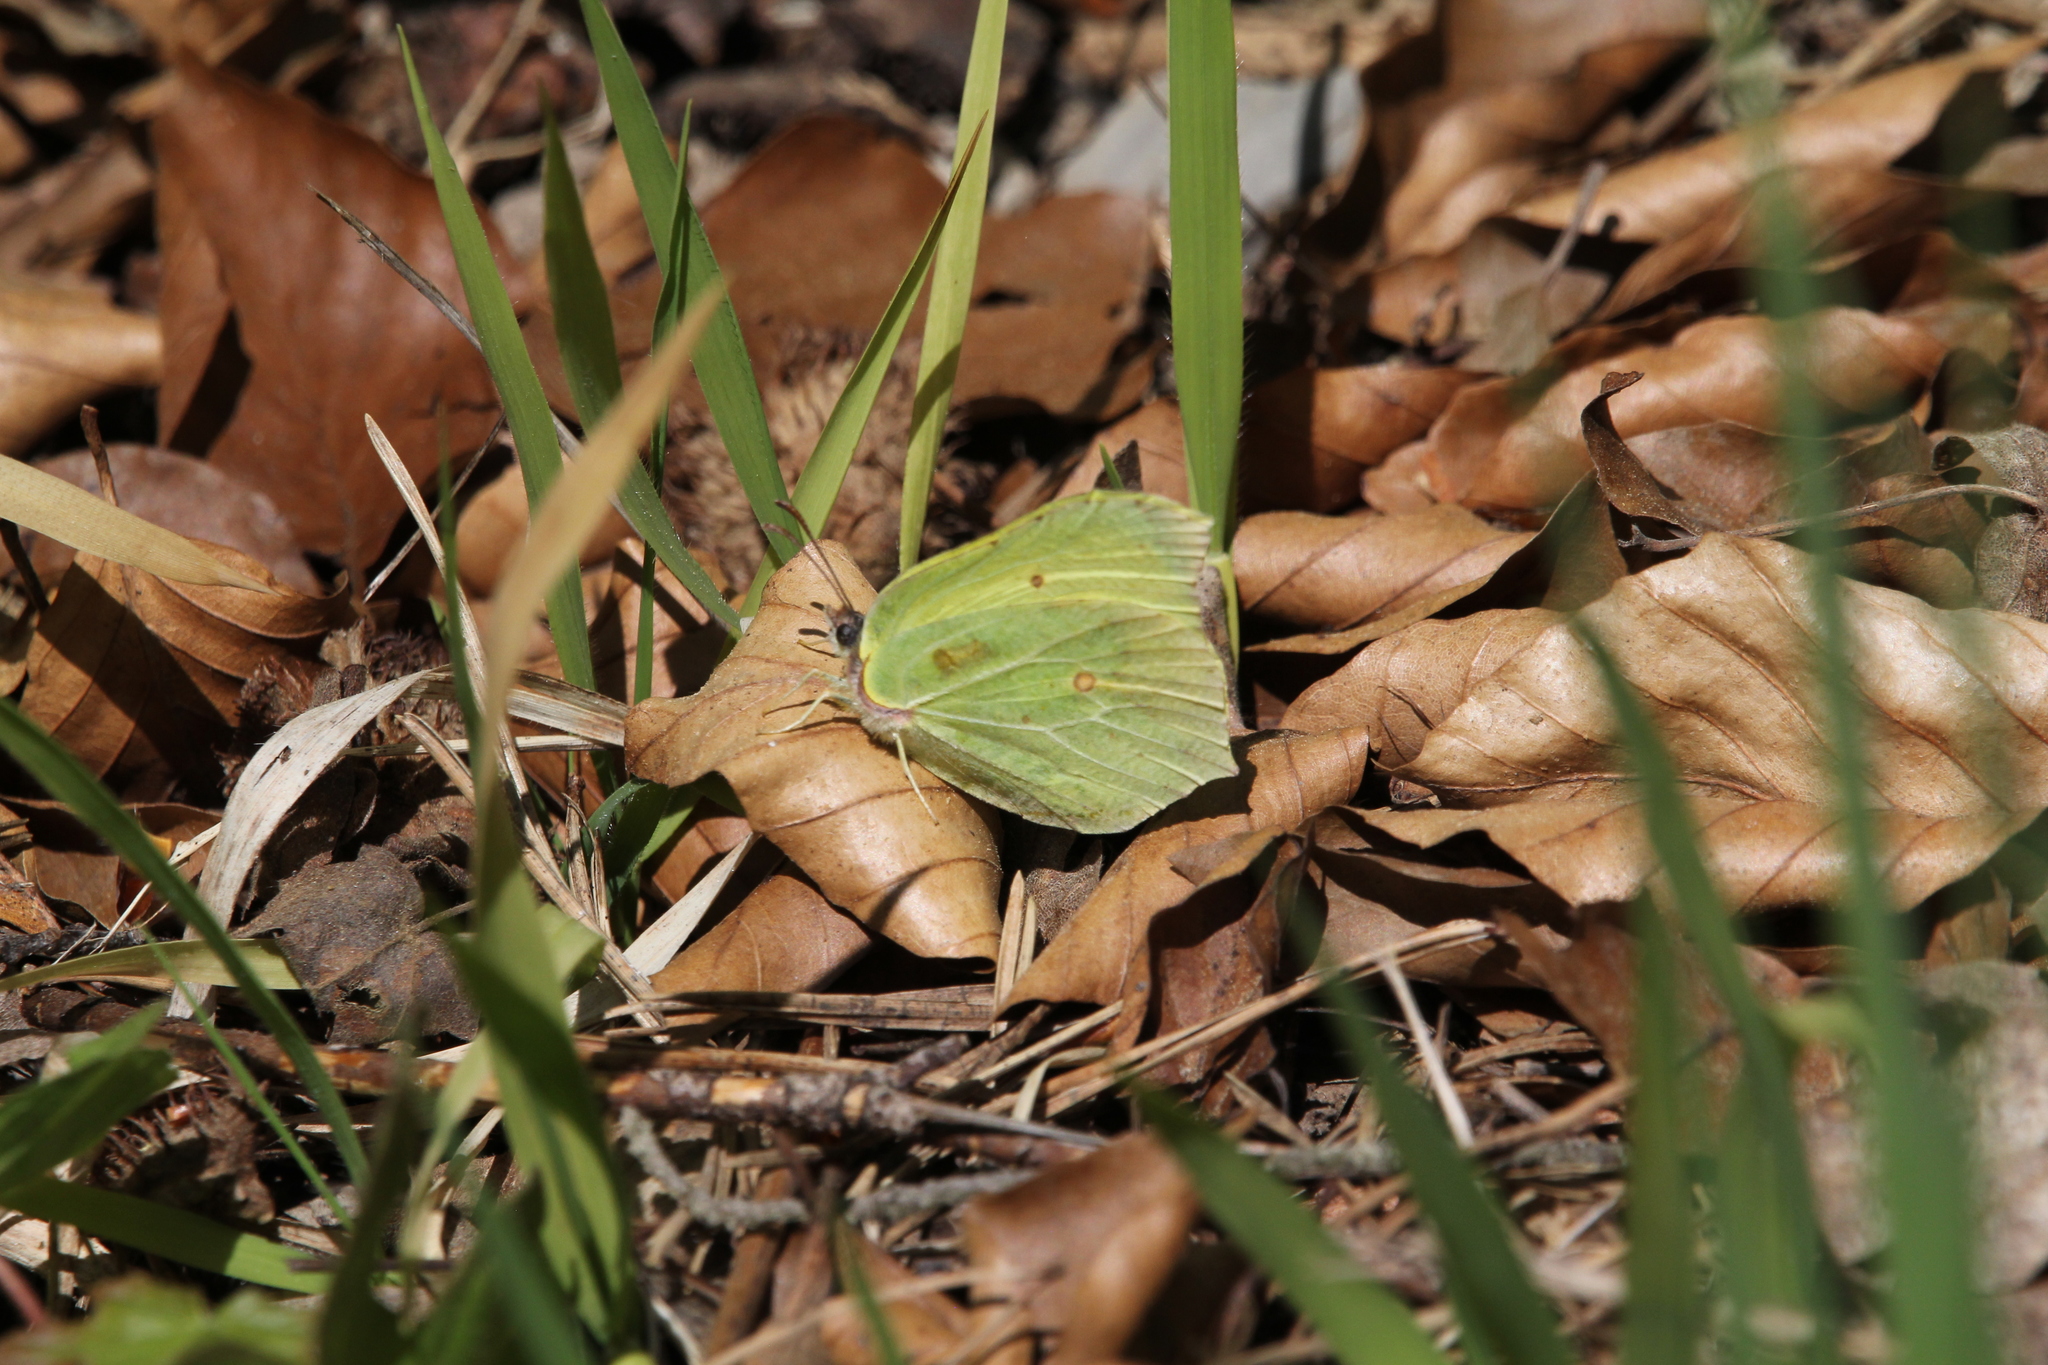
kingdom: Animalia
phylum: Arthropoda
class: Insecta
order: Lepidoptera
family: Pieridae
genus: Gonepteryx
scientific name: Gonepteryx rhamni
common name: Brimstone
